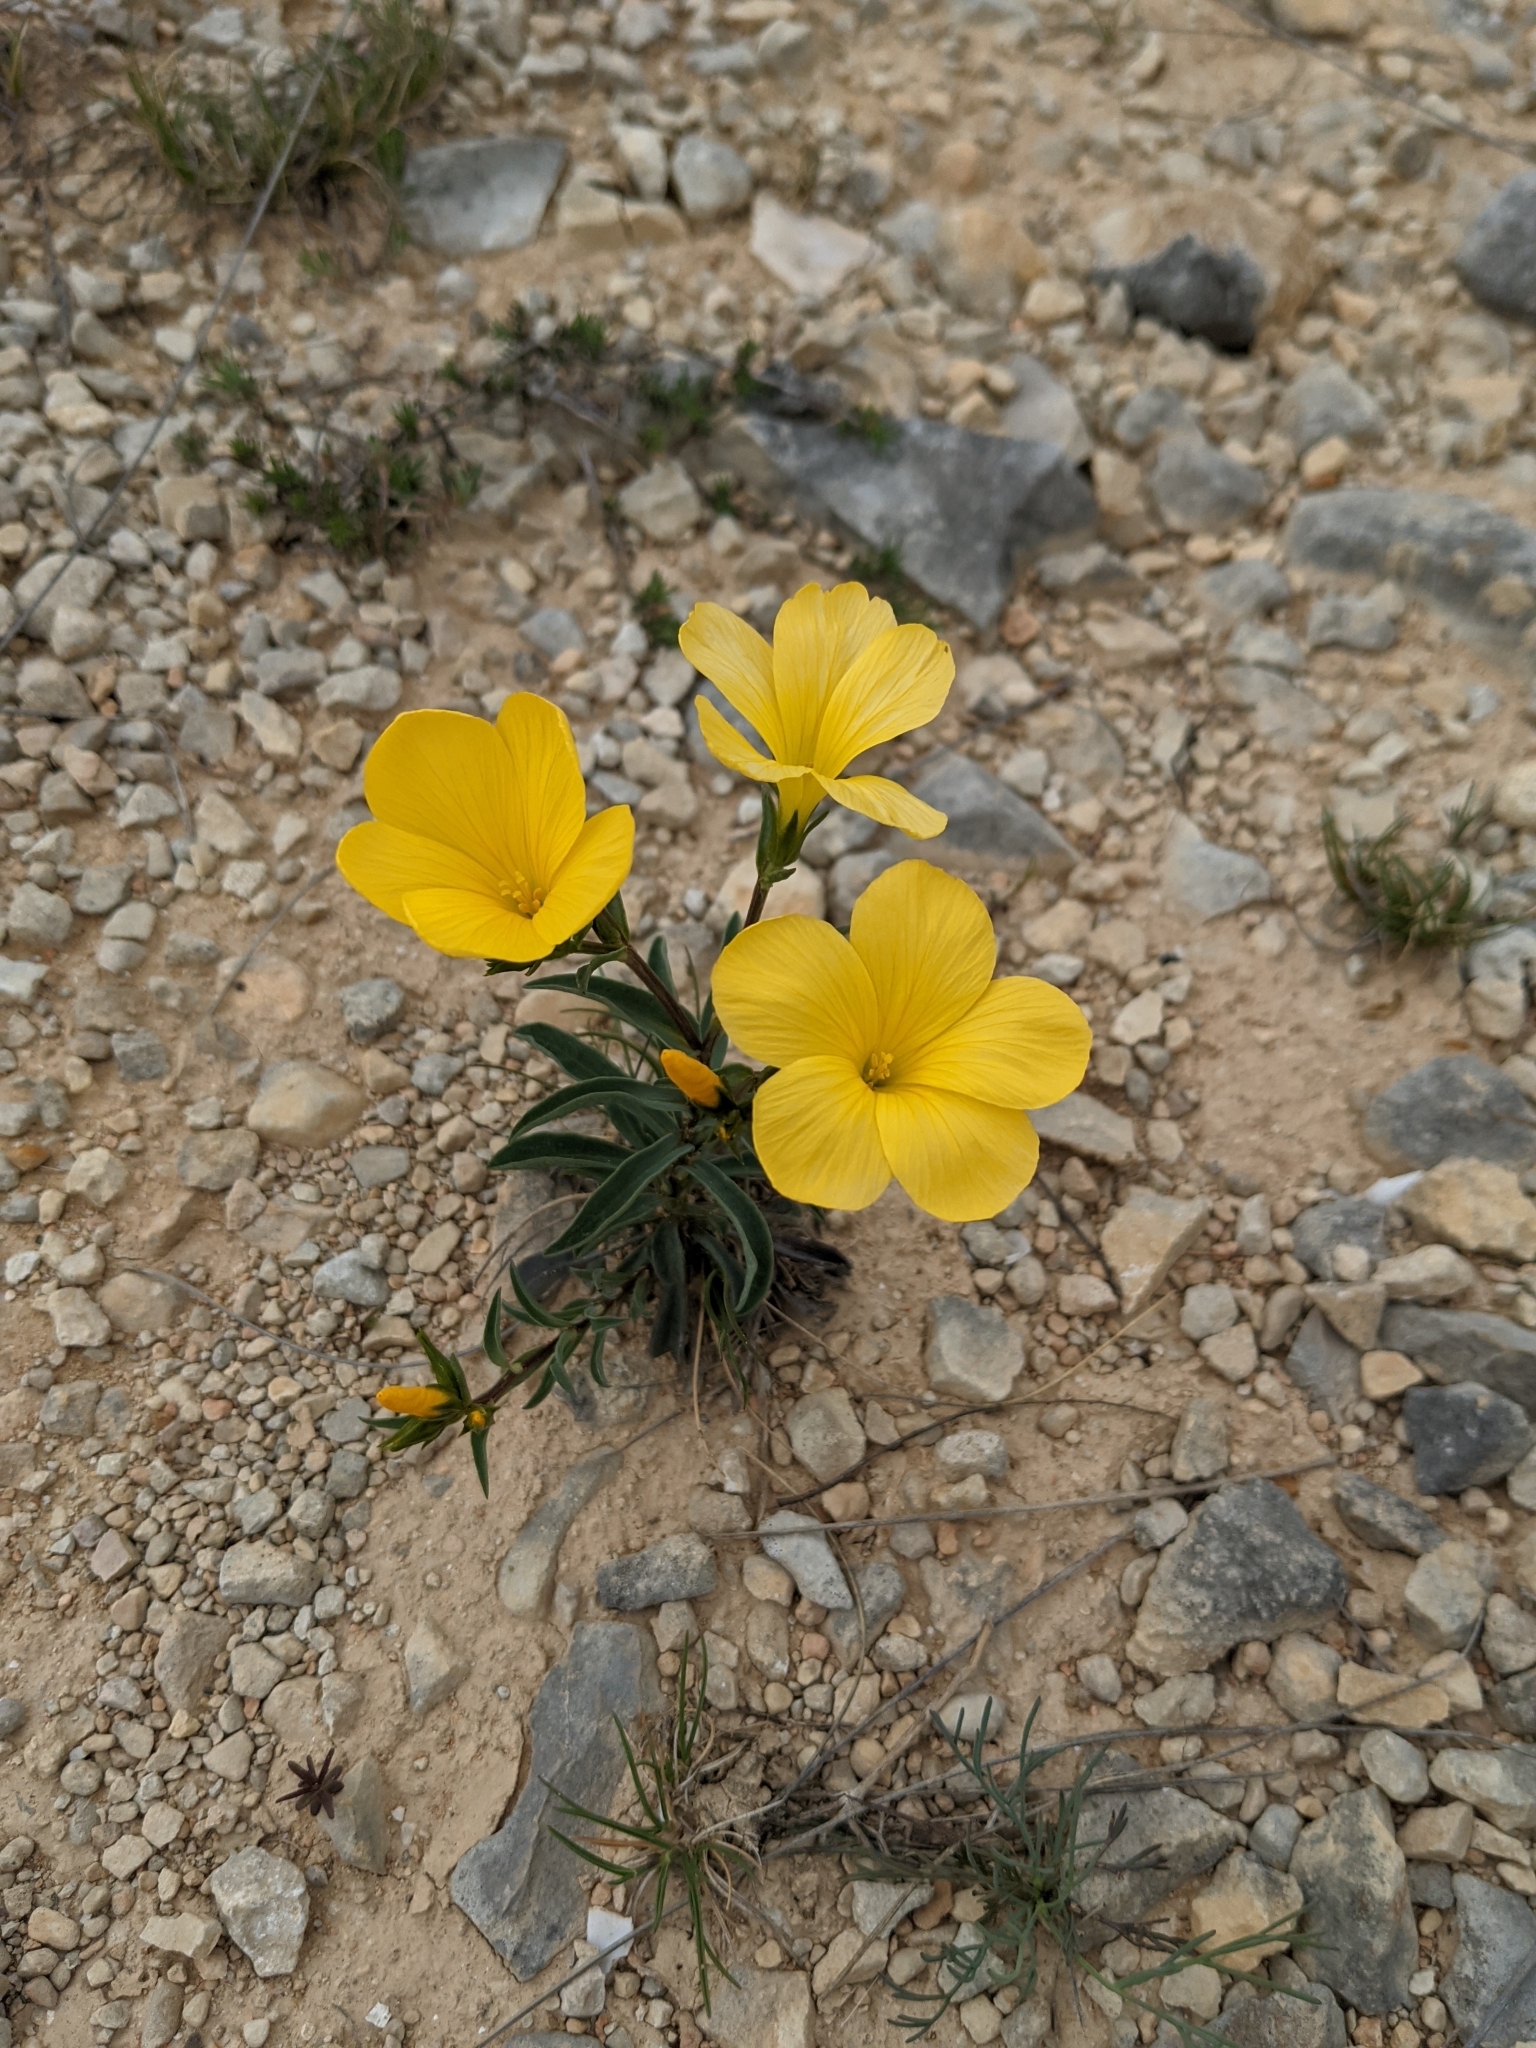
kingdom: Plantae
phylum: Tracheophyta
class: Magnoliopsida
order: Malpighiales
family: Linaceae
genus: Linum
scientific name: Linum campanulatum
